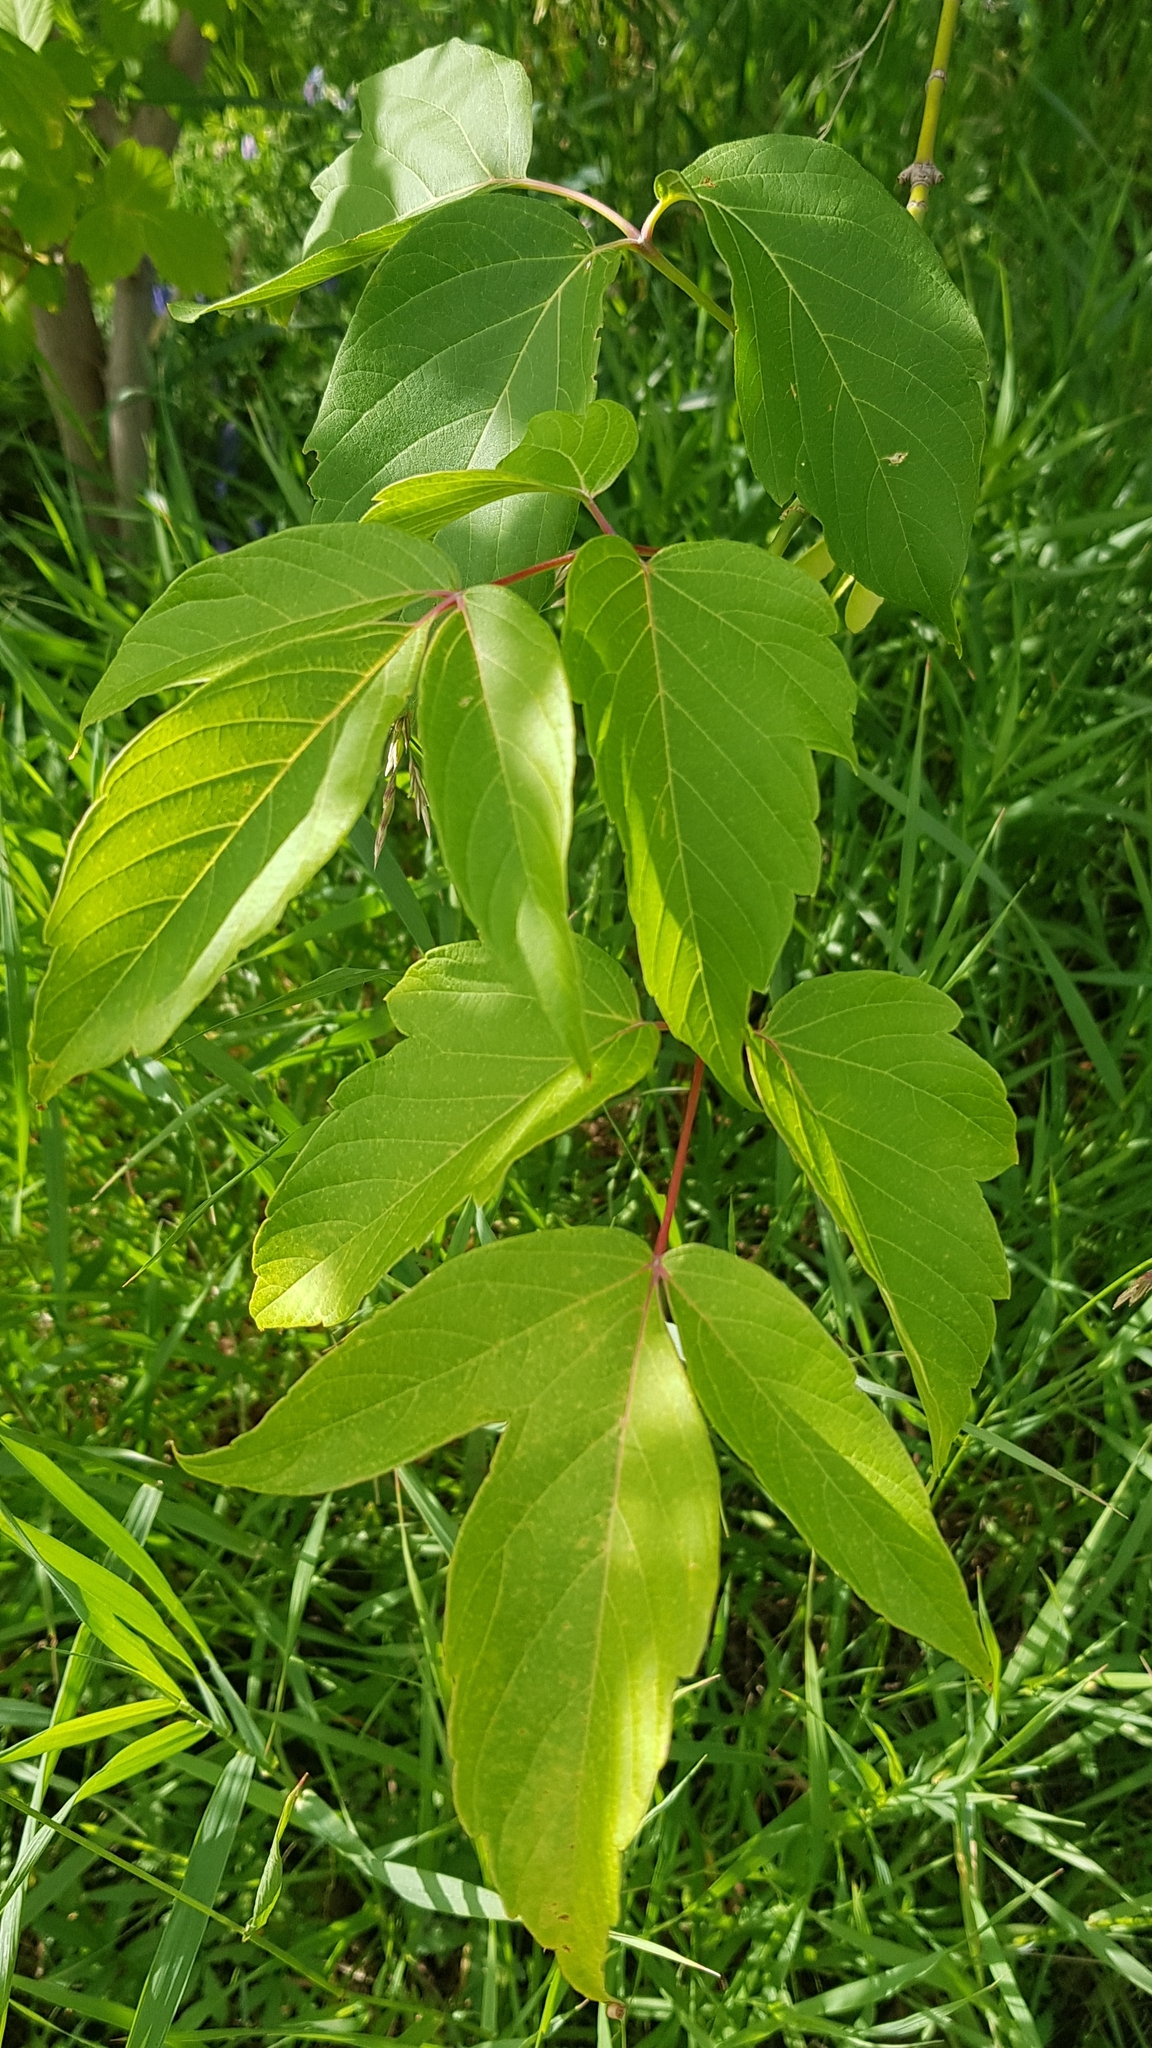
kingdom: Plantae
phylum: Tracheophyta
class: Magnoliopsida
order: Sapindales
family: Sapindaceae
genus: Acer
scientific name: Acer negundo
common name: Ashleaf maple
